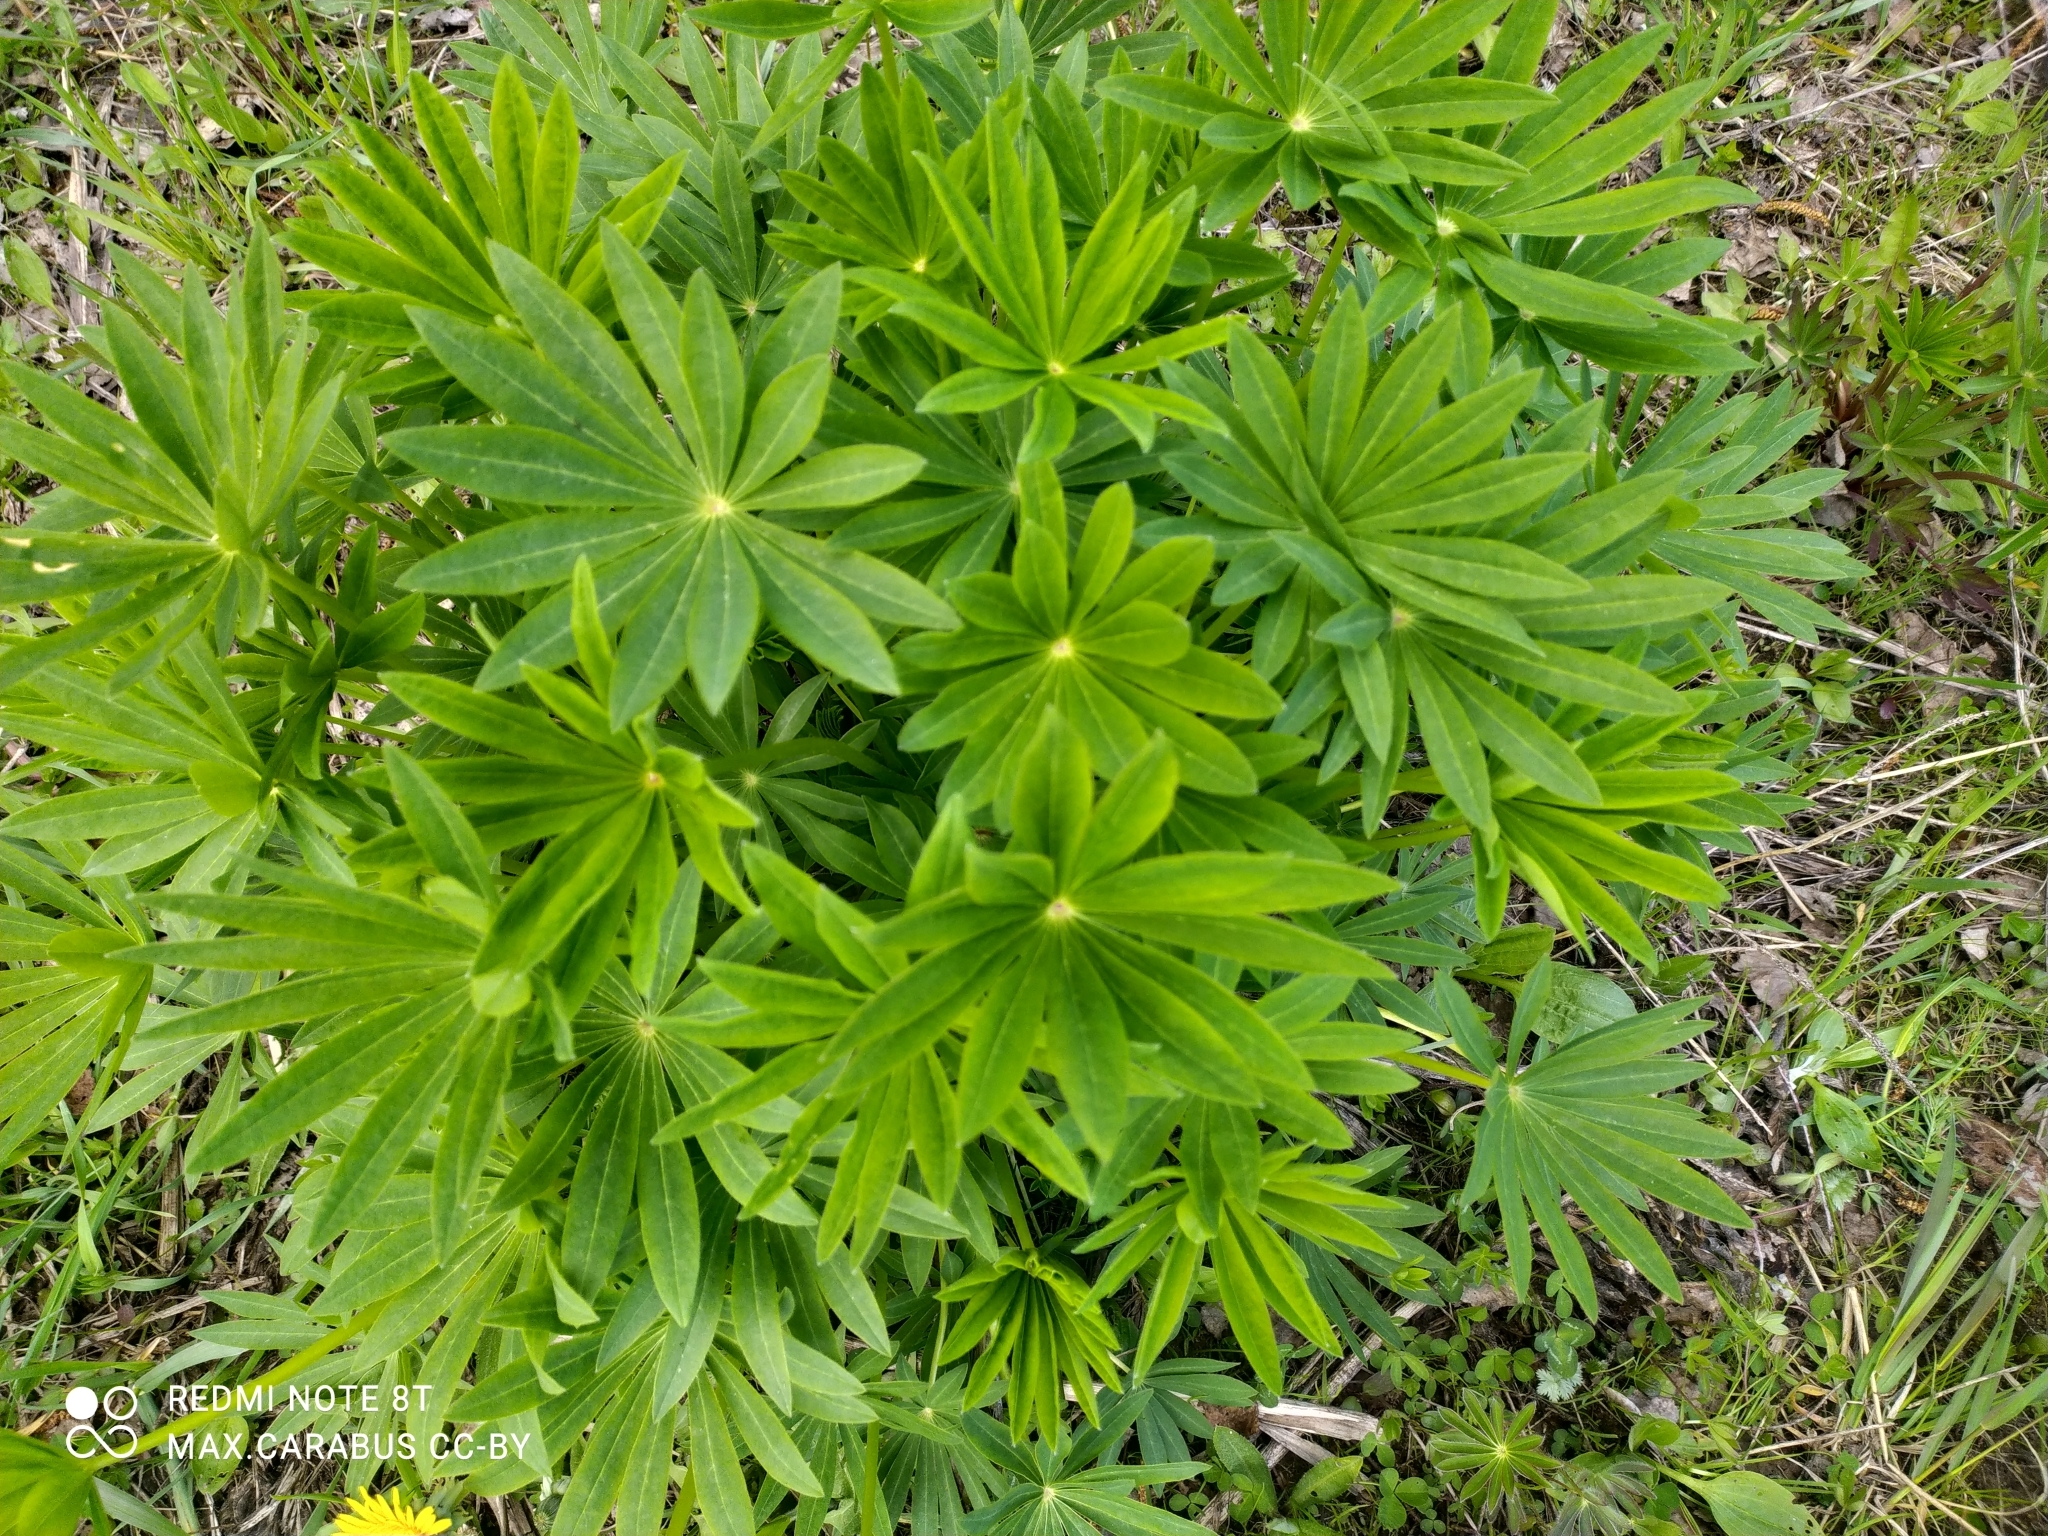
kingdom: Plantae
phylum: Tracheophyta
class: Magnoliopsida
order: Fabales
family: Fabaceae
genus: Lupinus
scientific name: Lupinus polyphyllus
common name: Garden lupin
